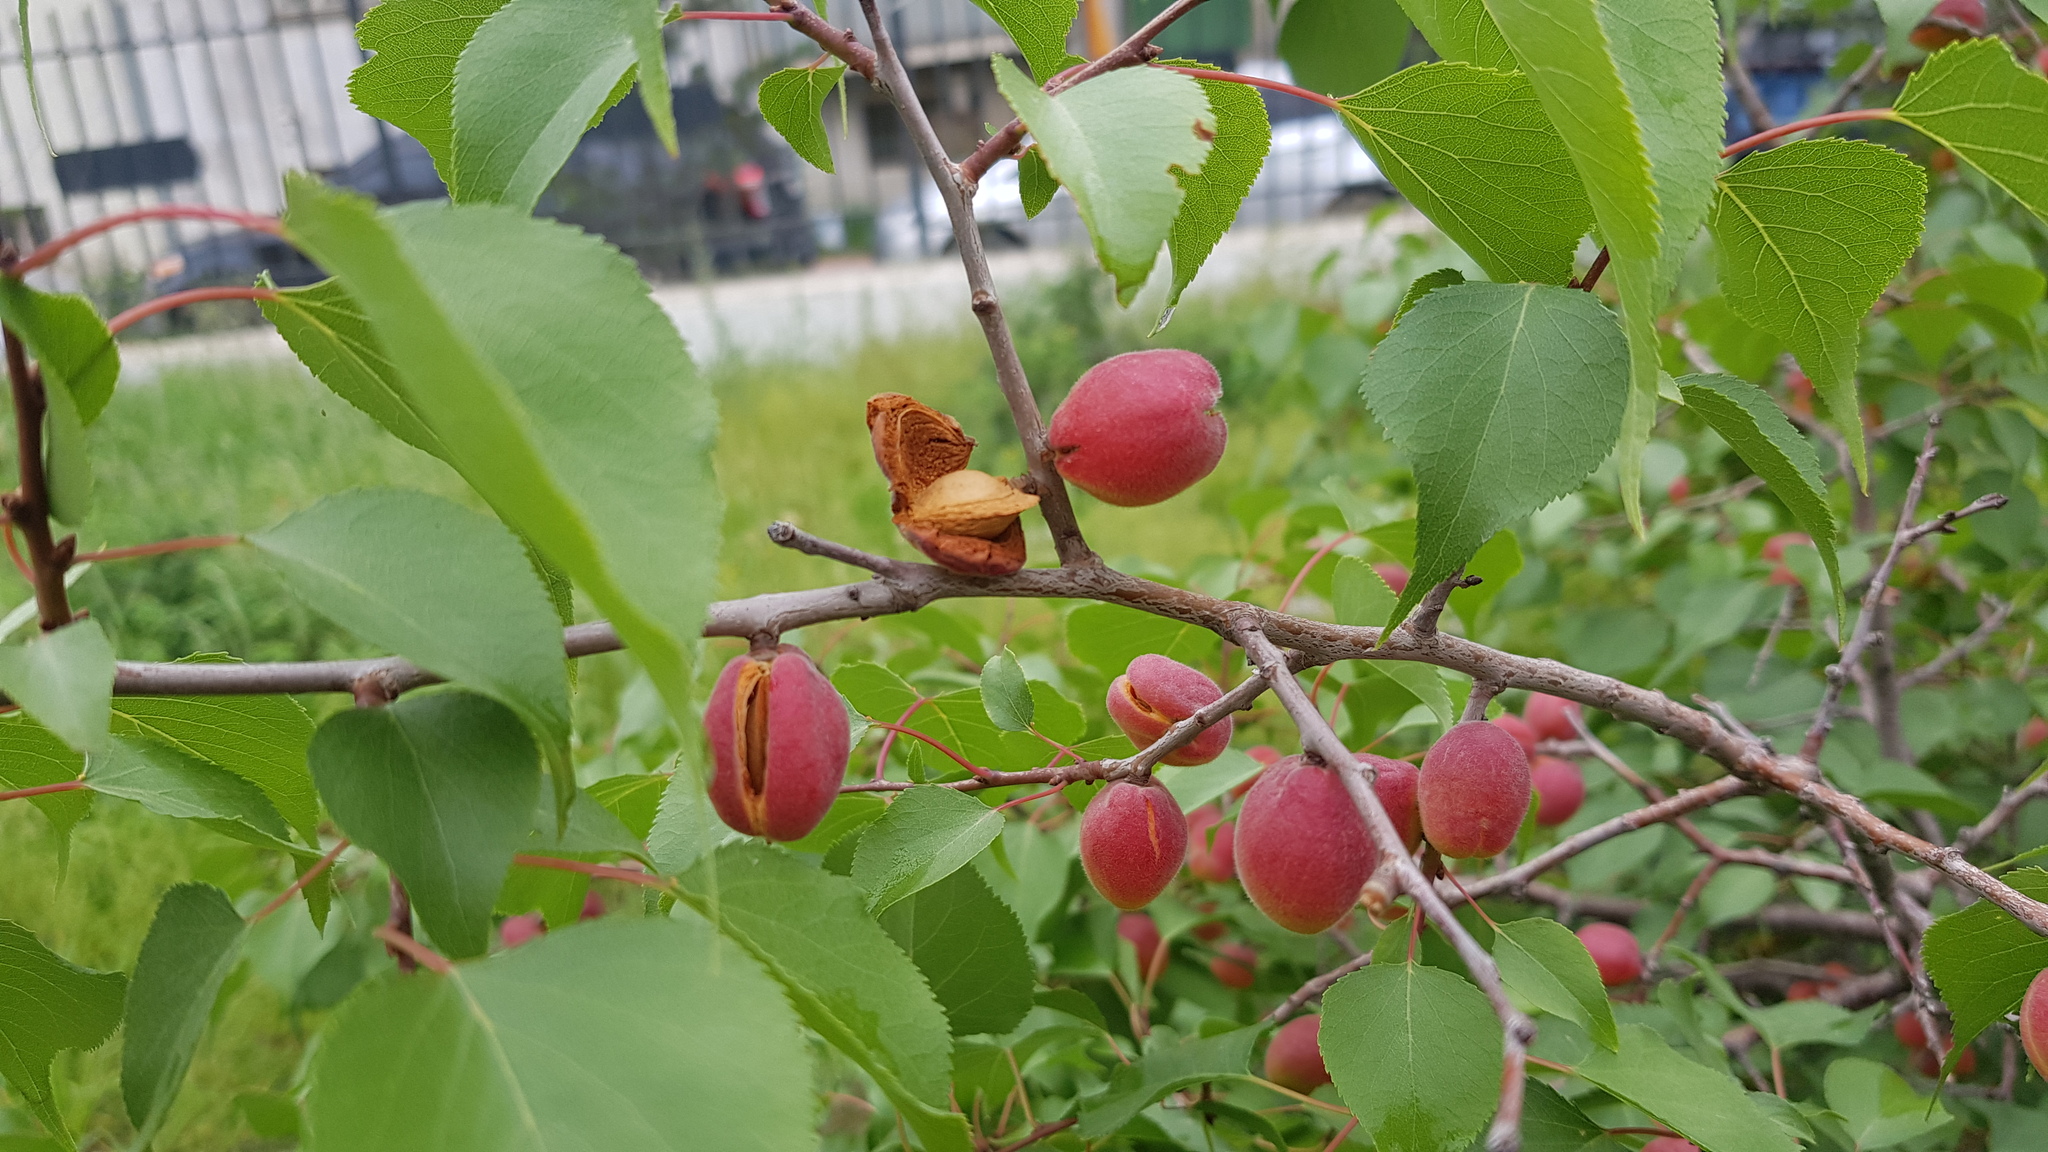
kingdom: Plantae
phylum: Tracheophyta
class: Magnoliopsida
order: Rosales
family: Rosaceae
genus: Prunus
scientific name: Prunus sibirica
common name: Siberian apricot
